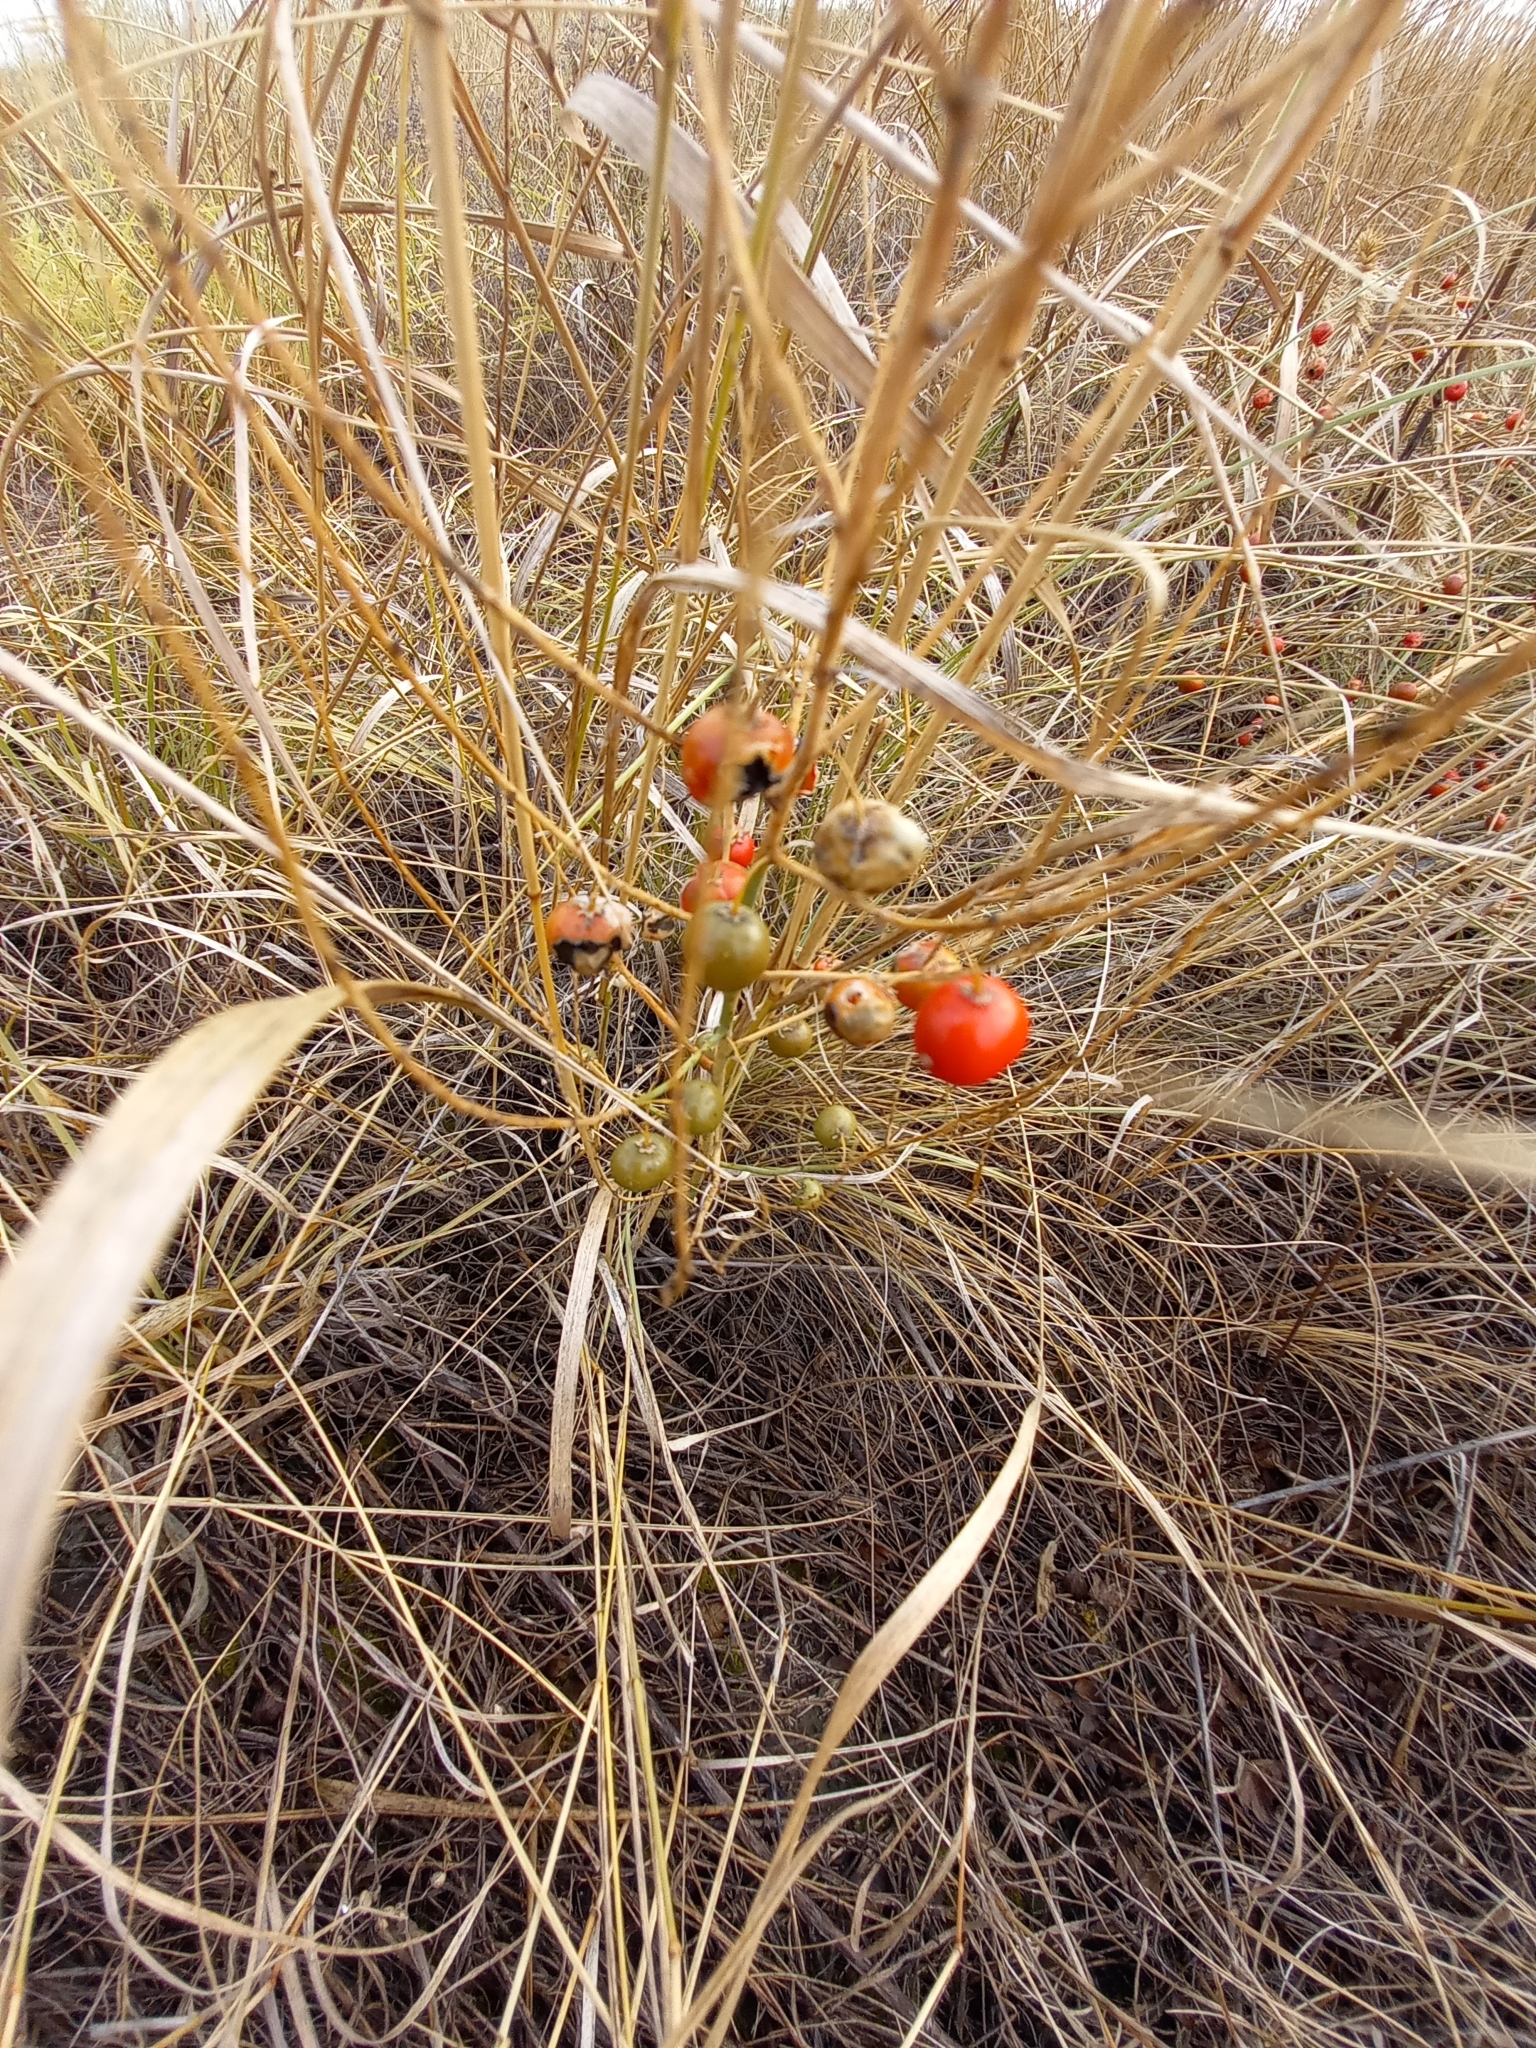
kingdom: Plantae
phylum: Tracheophyta
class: Liliopsida
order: Asparagales
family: Asparagaceae
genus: Asparagus
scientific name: Asparagus officinalis
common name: Garden asparagus
